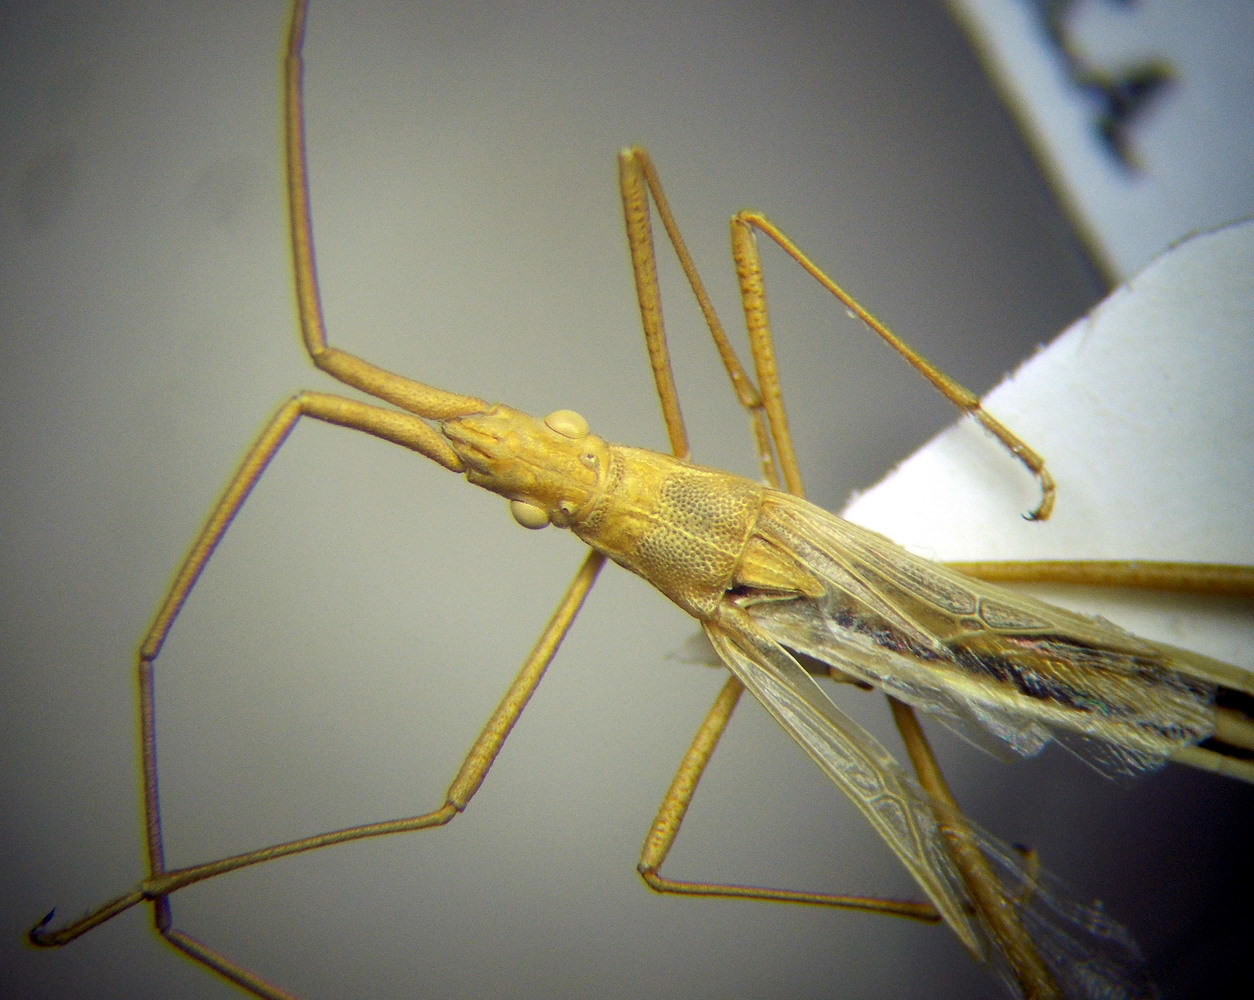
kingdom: Animalia
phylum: Arthropoda
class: Insecta
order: Hemiptera
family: Rhopalidae
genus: Chorosoma
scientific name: Chorosoma gracile
